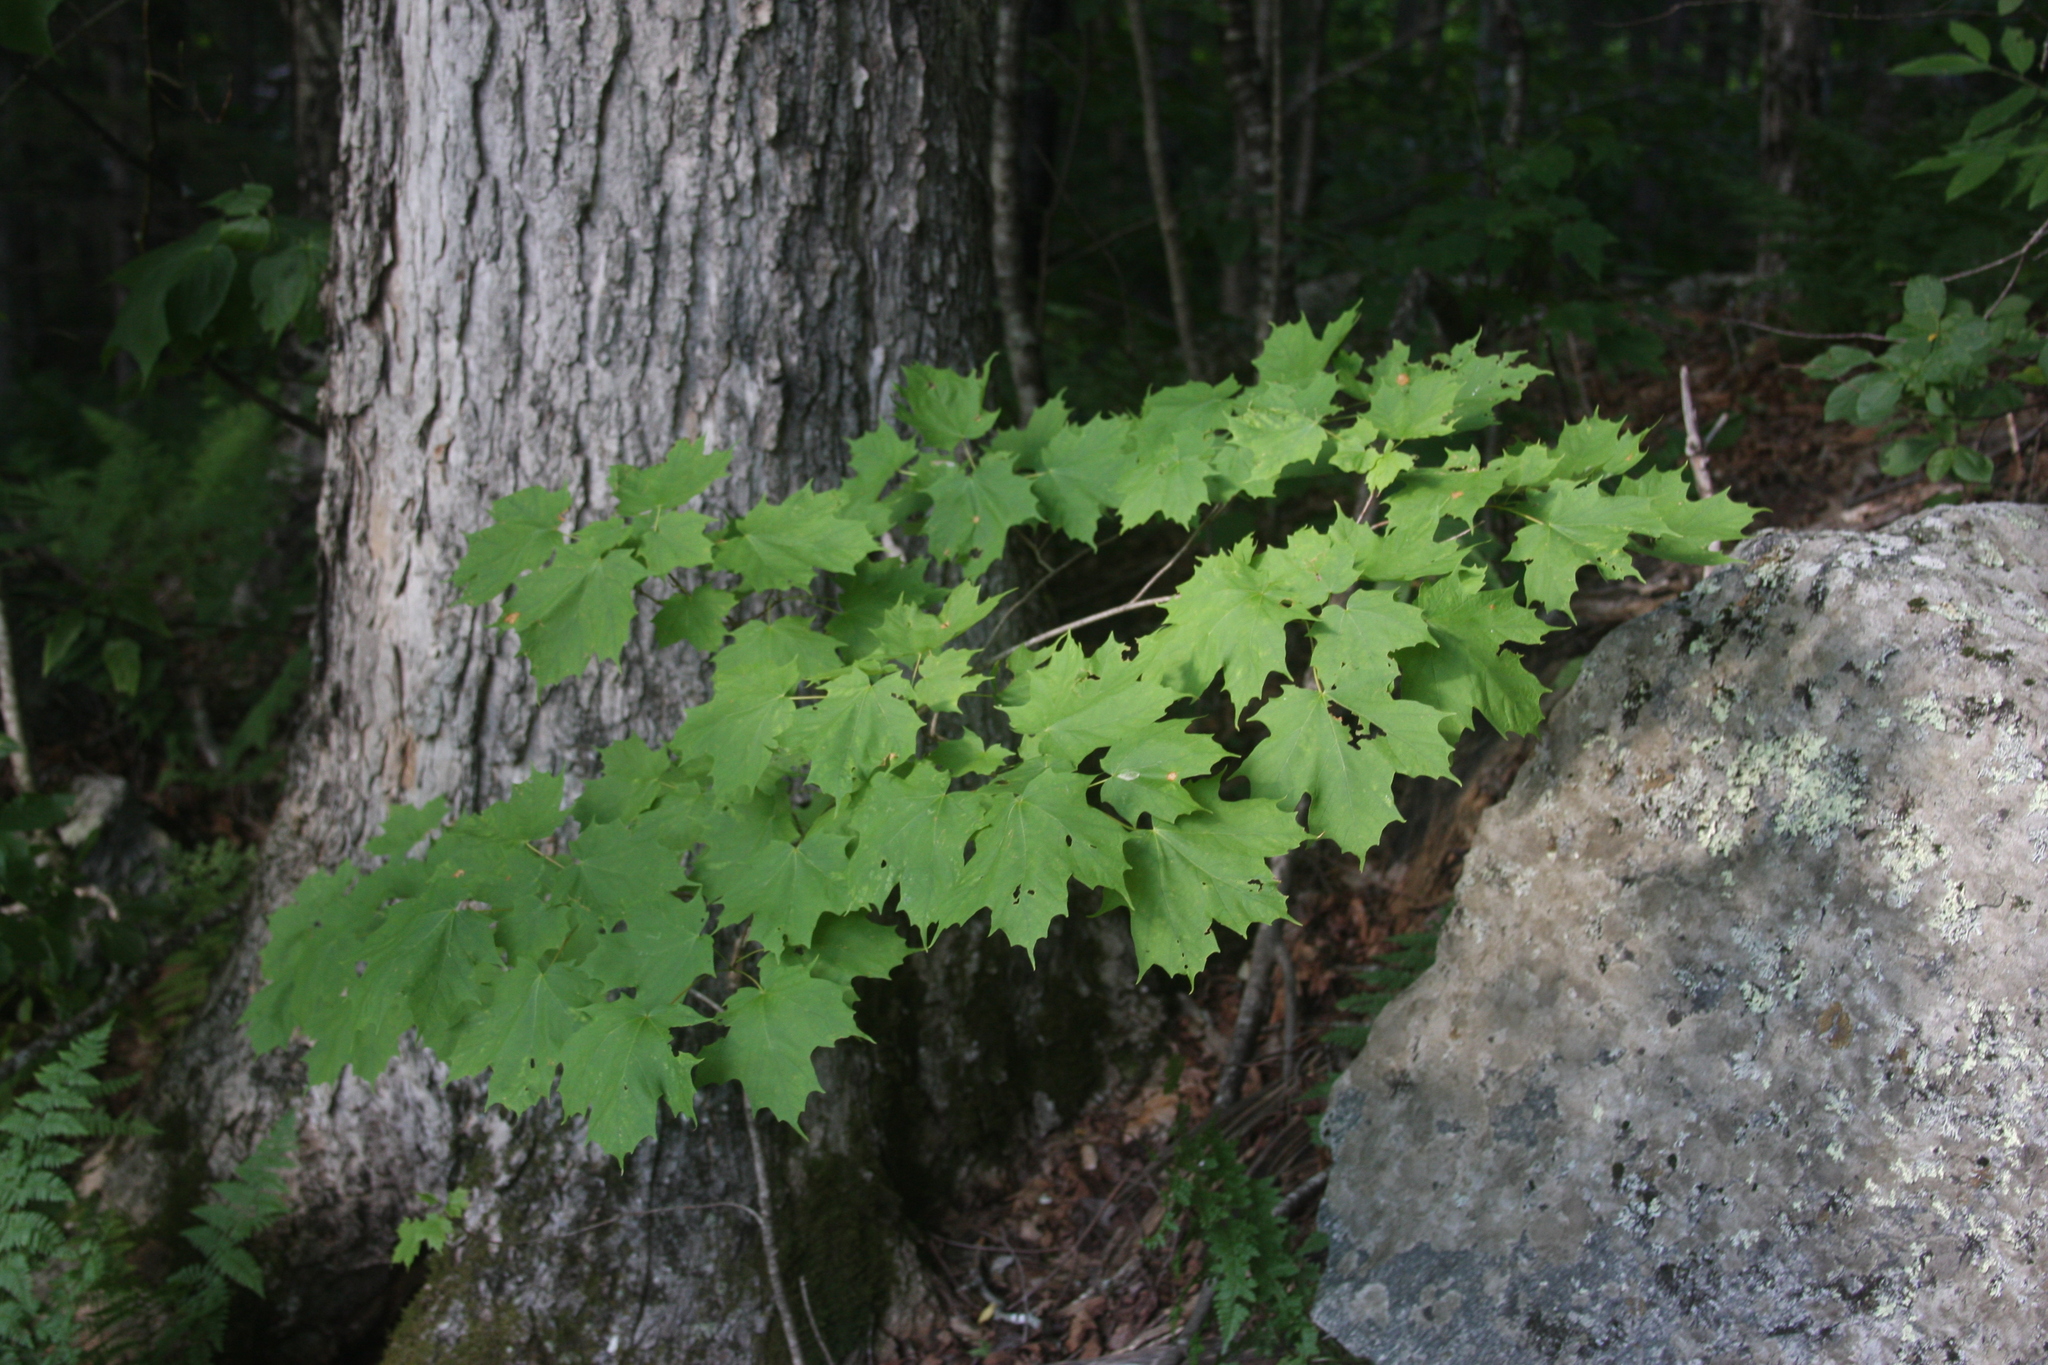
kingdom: Plantae
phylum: Tracheophyta
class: Magnoliopsida
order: Sapindales
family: Sapindaceae
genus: Acer
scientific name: Acer saccharum
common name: Sugar maple
